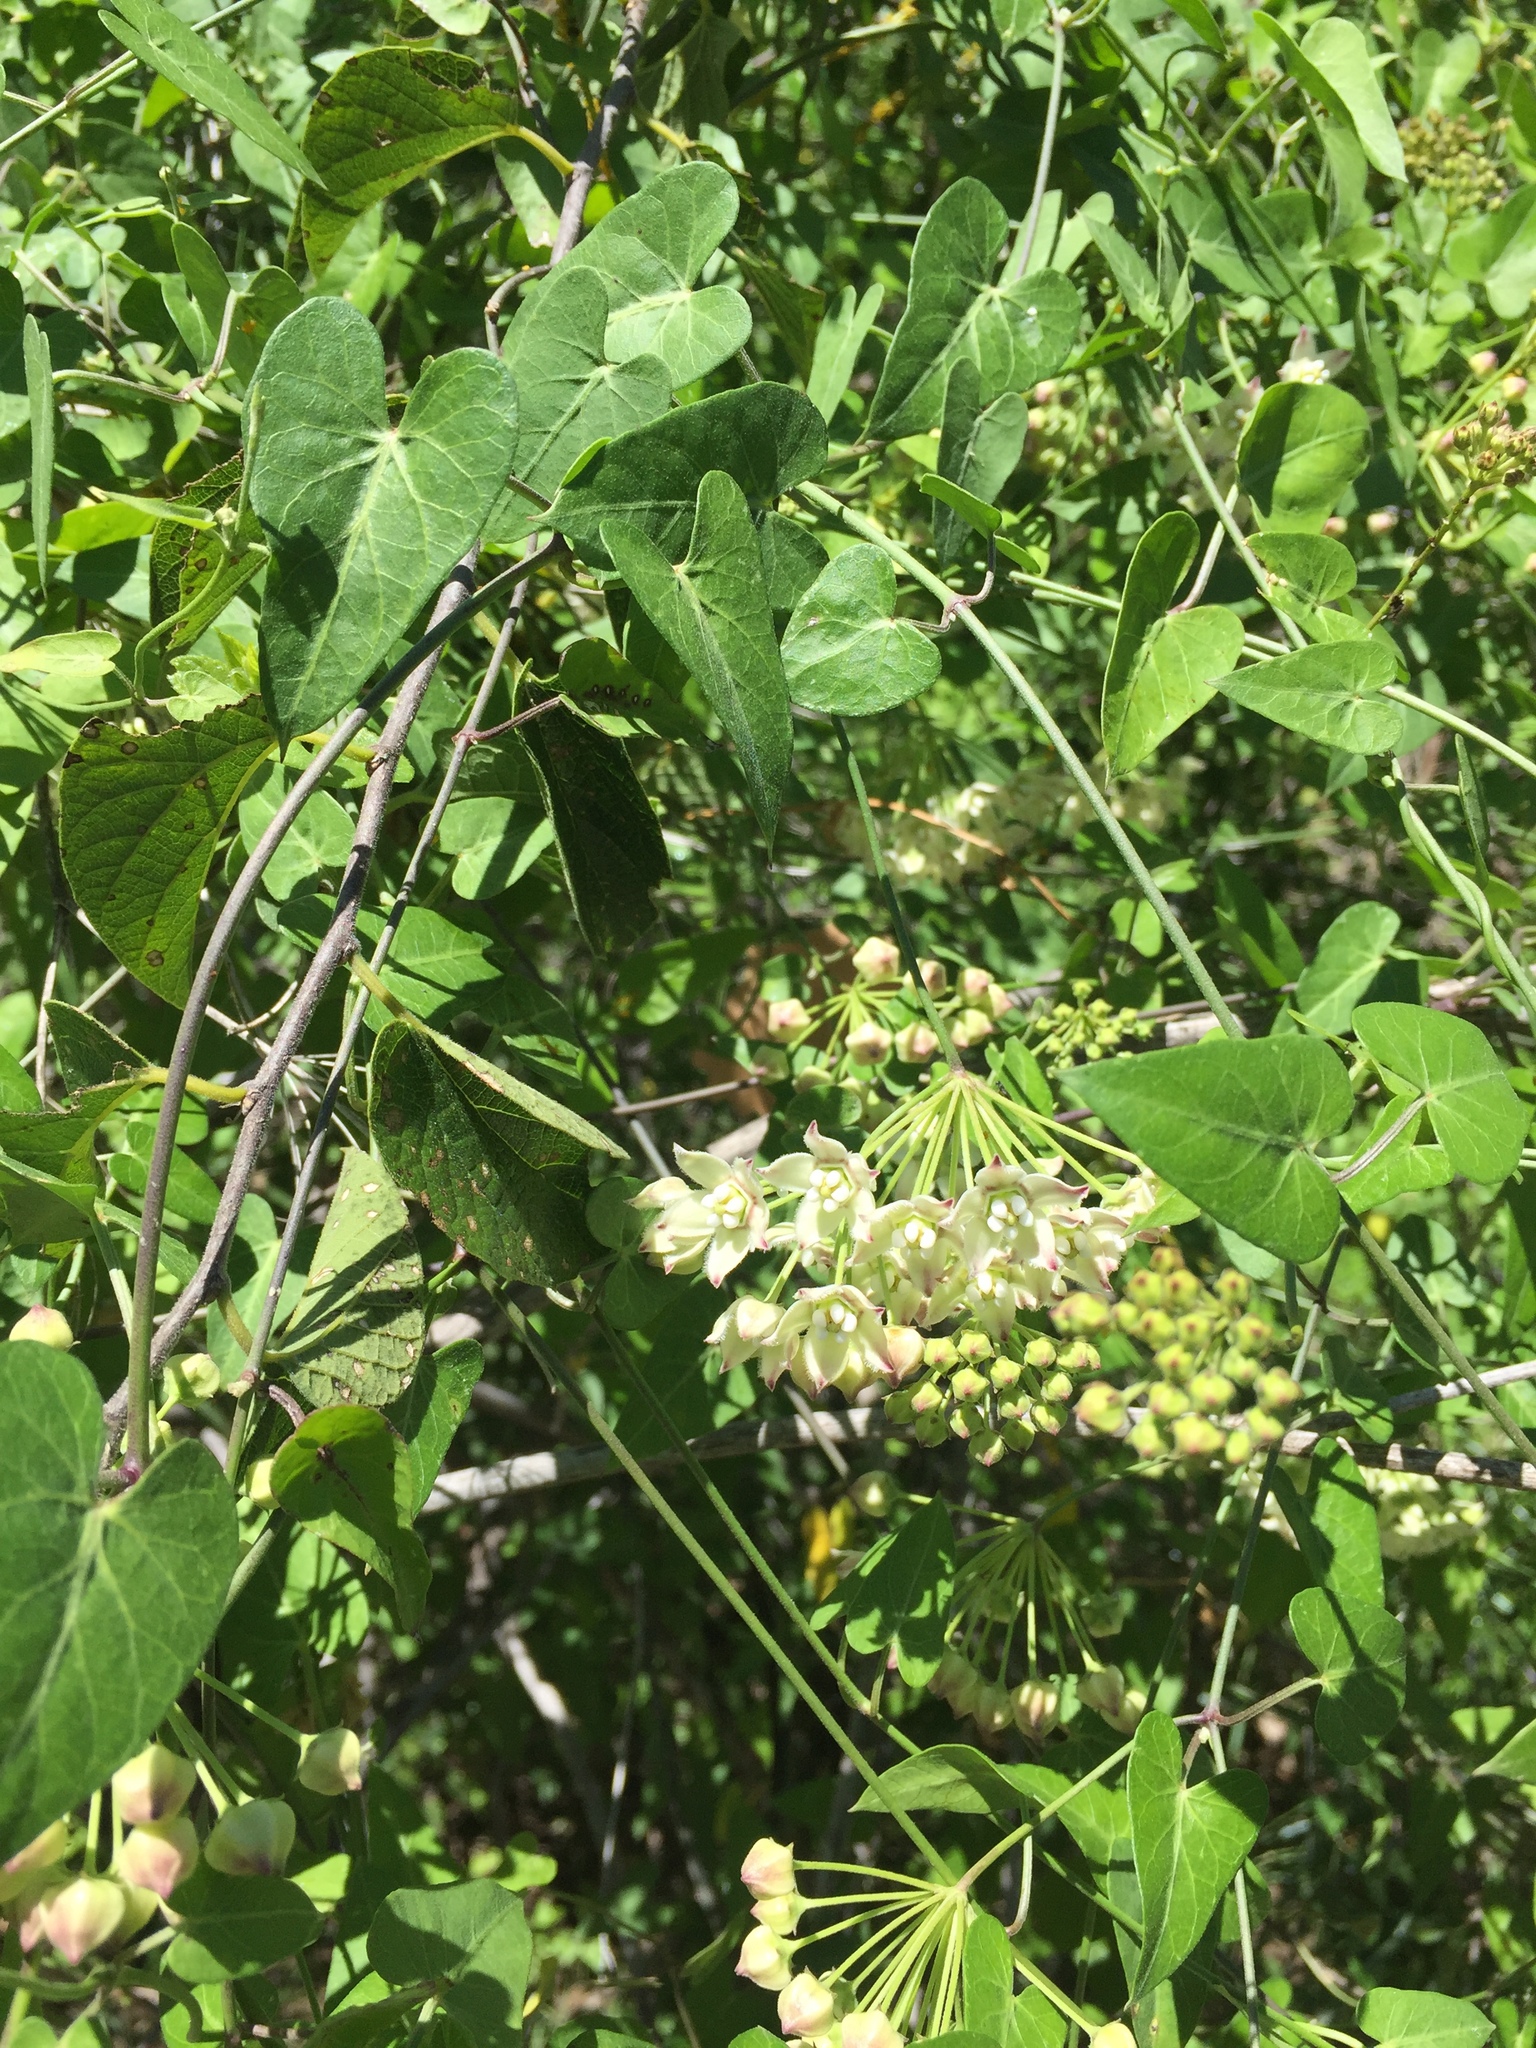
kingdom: Plantae
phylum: Tracheophyta
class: Magnoliopsida
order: Gentianales
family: Apocynaceae
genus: Funastrum
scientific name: Funastrum cynanchoides
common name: Climbing-milkweed
